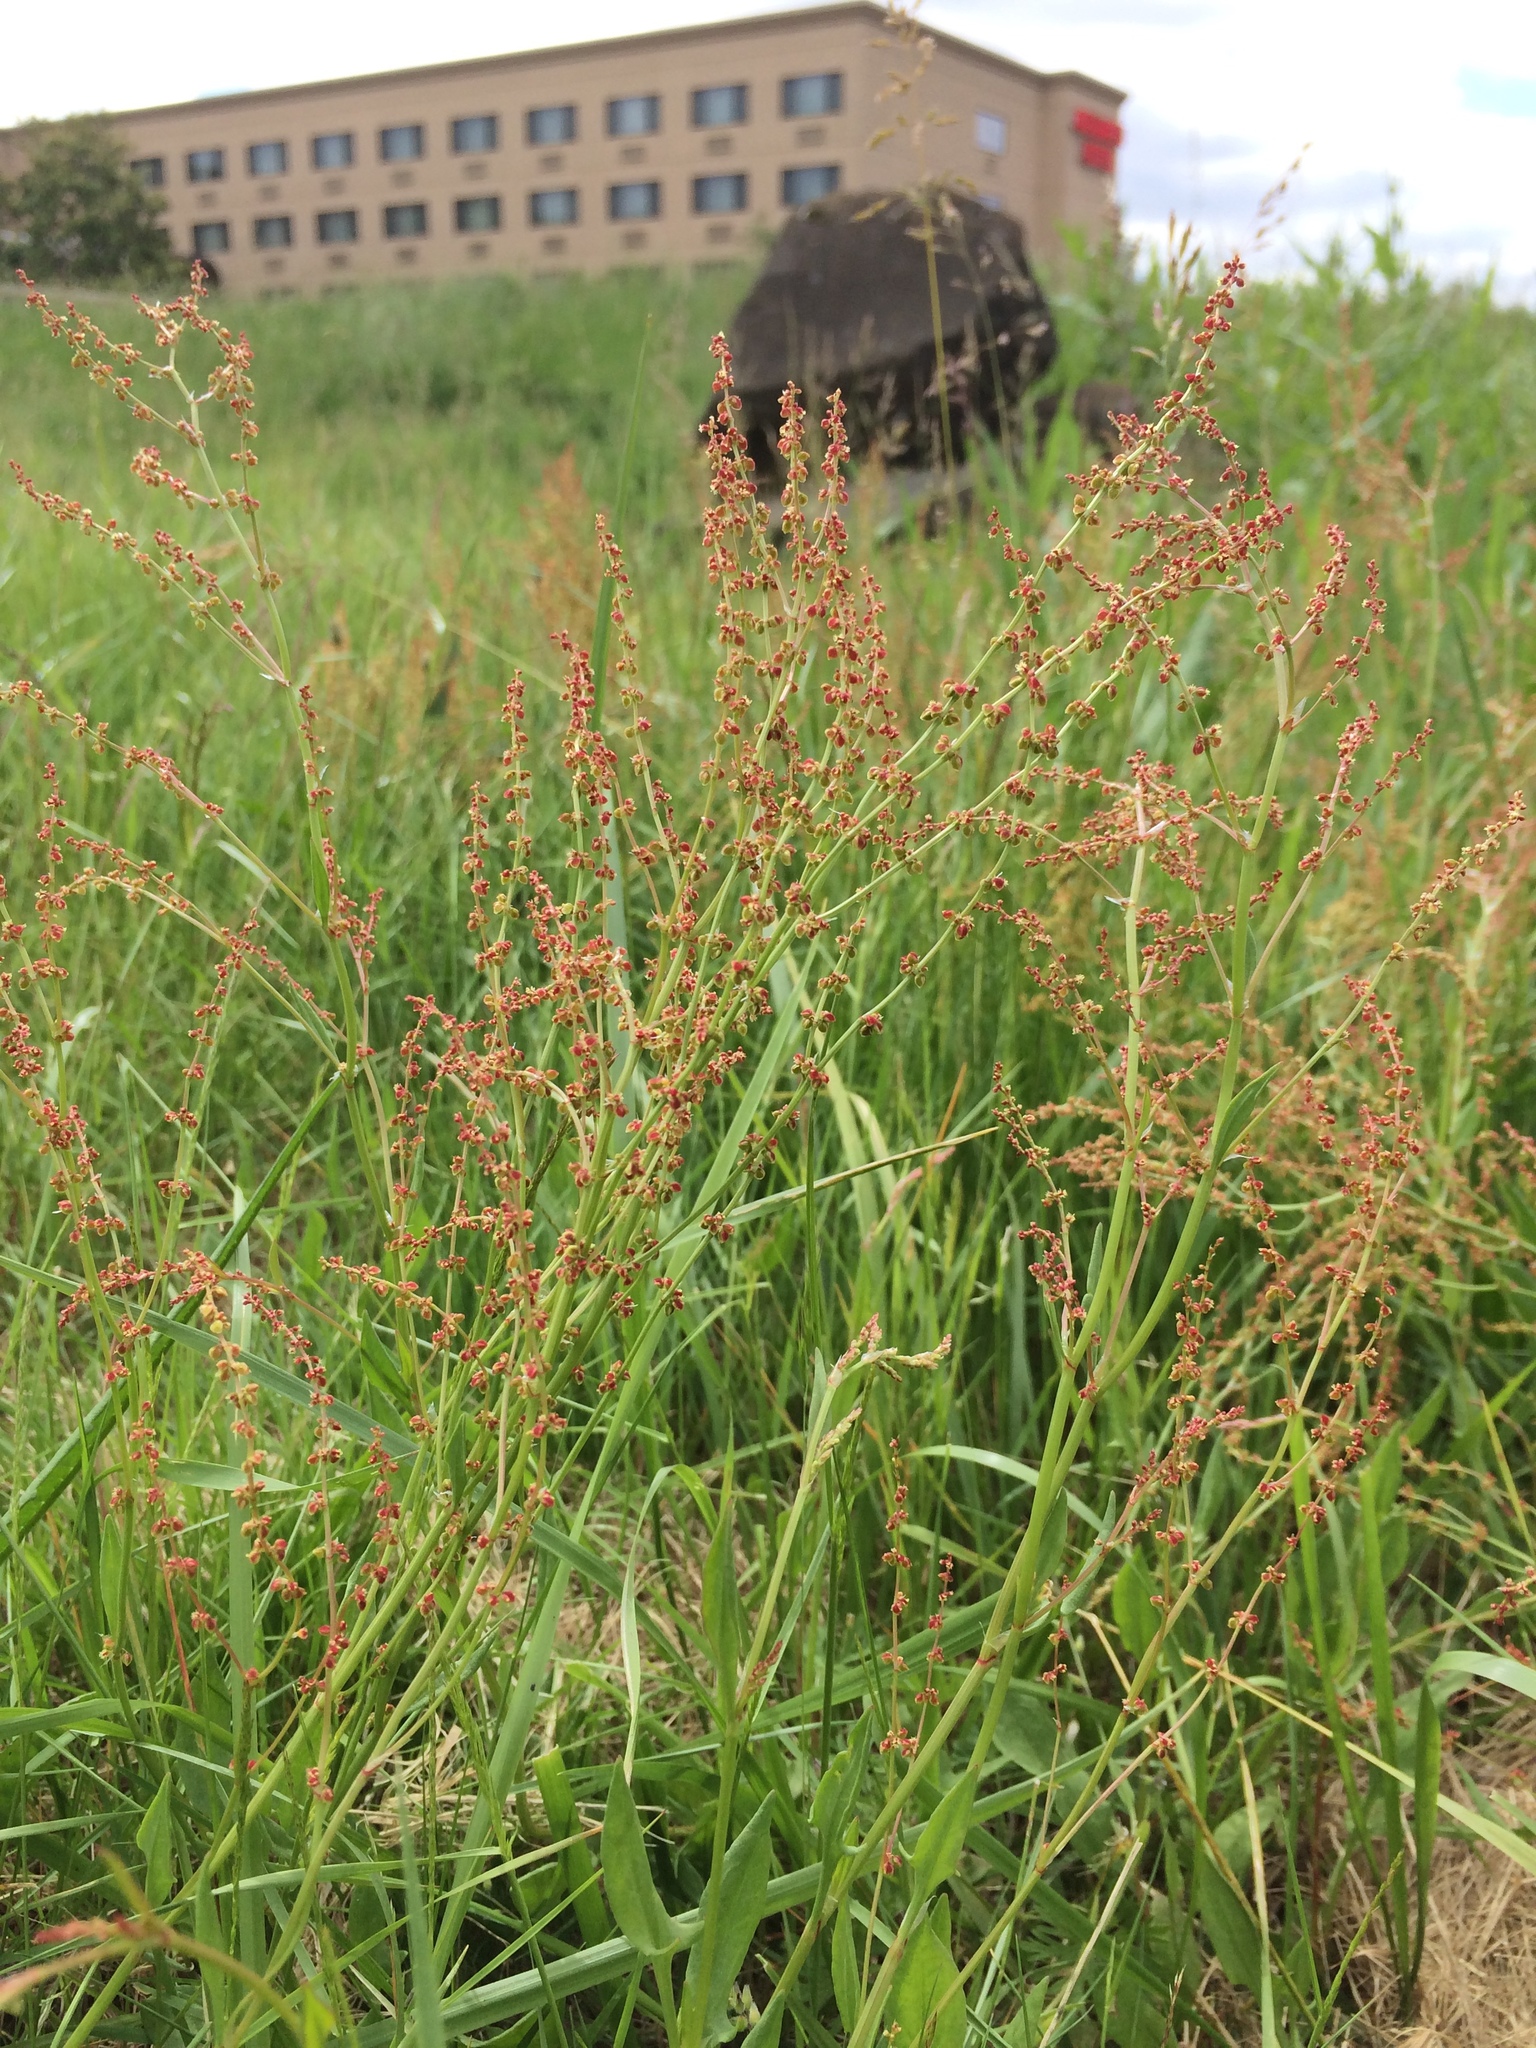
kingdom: Plantae
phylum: Tracheophyta
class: Magnoliopsida
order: Caryophyllales
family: Polygonaceae
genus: Rumex
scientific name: Rumex acetosella
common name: Common sheep sorrel
